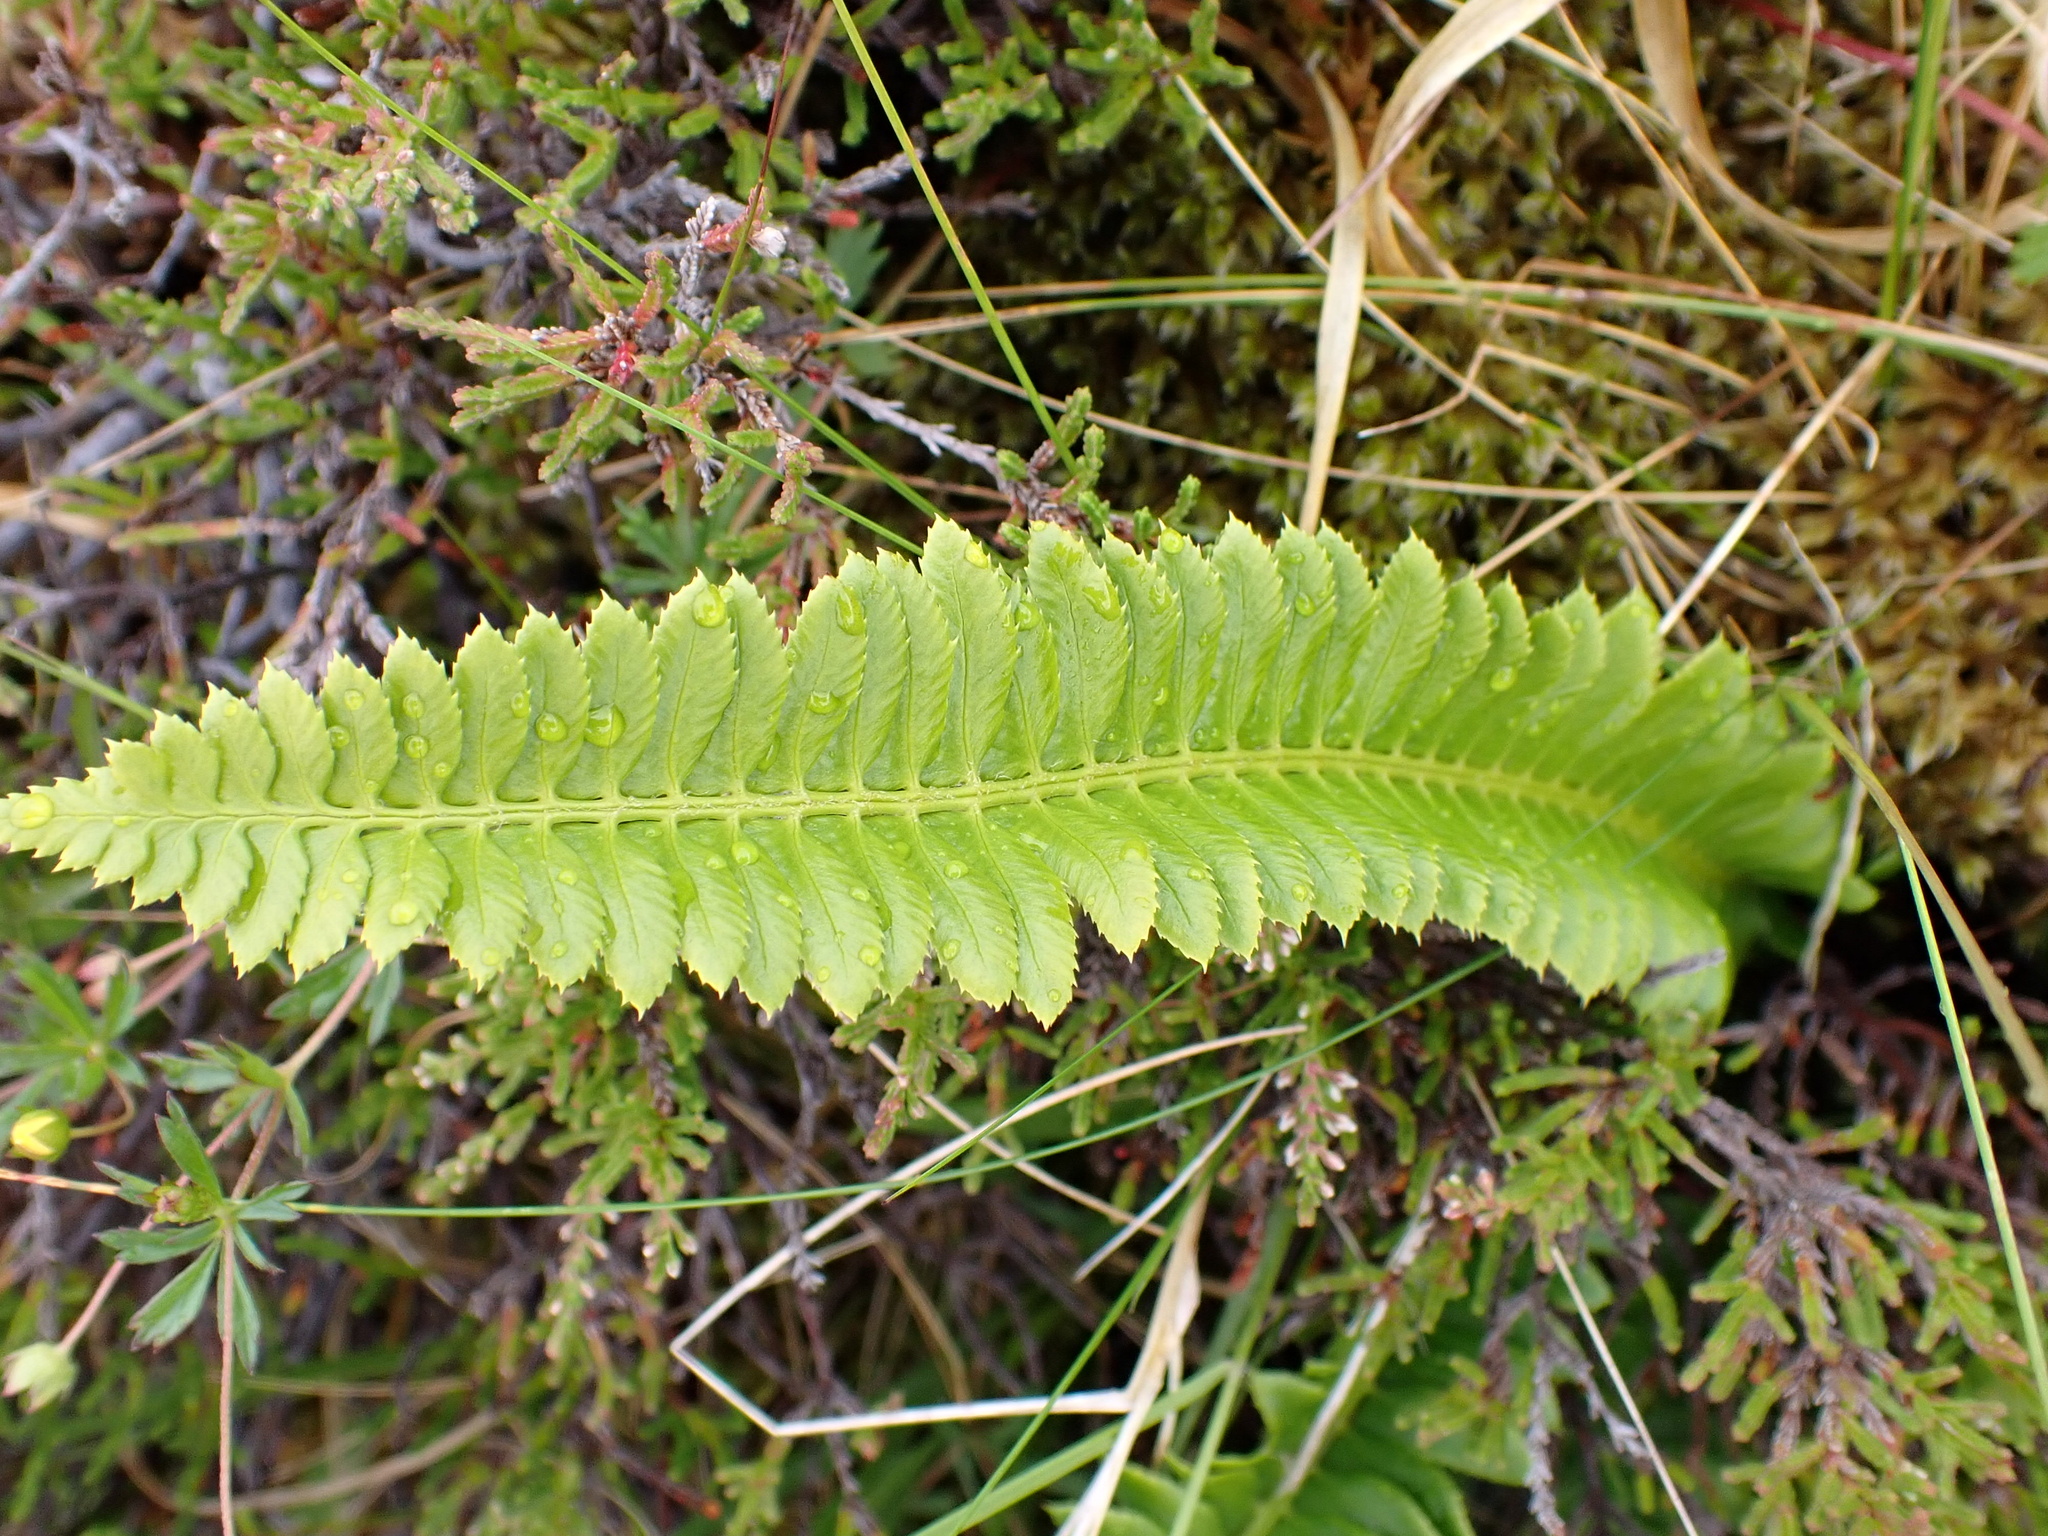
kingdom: Plantae
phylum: Tracheophyta
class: Polypodiopsida
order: Polypodiales
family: Dryopteridaceae
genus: Polystichum
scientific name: Polystichum lonchitis
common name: Holly fern
